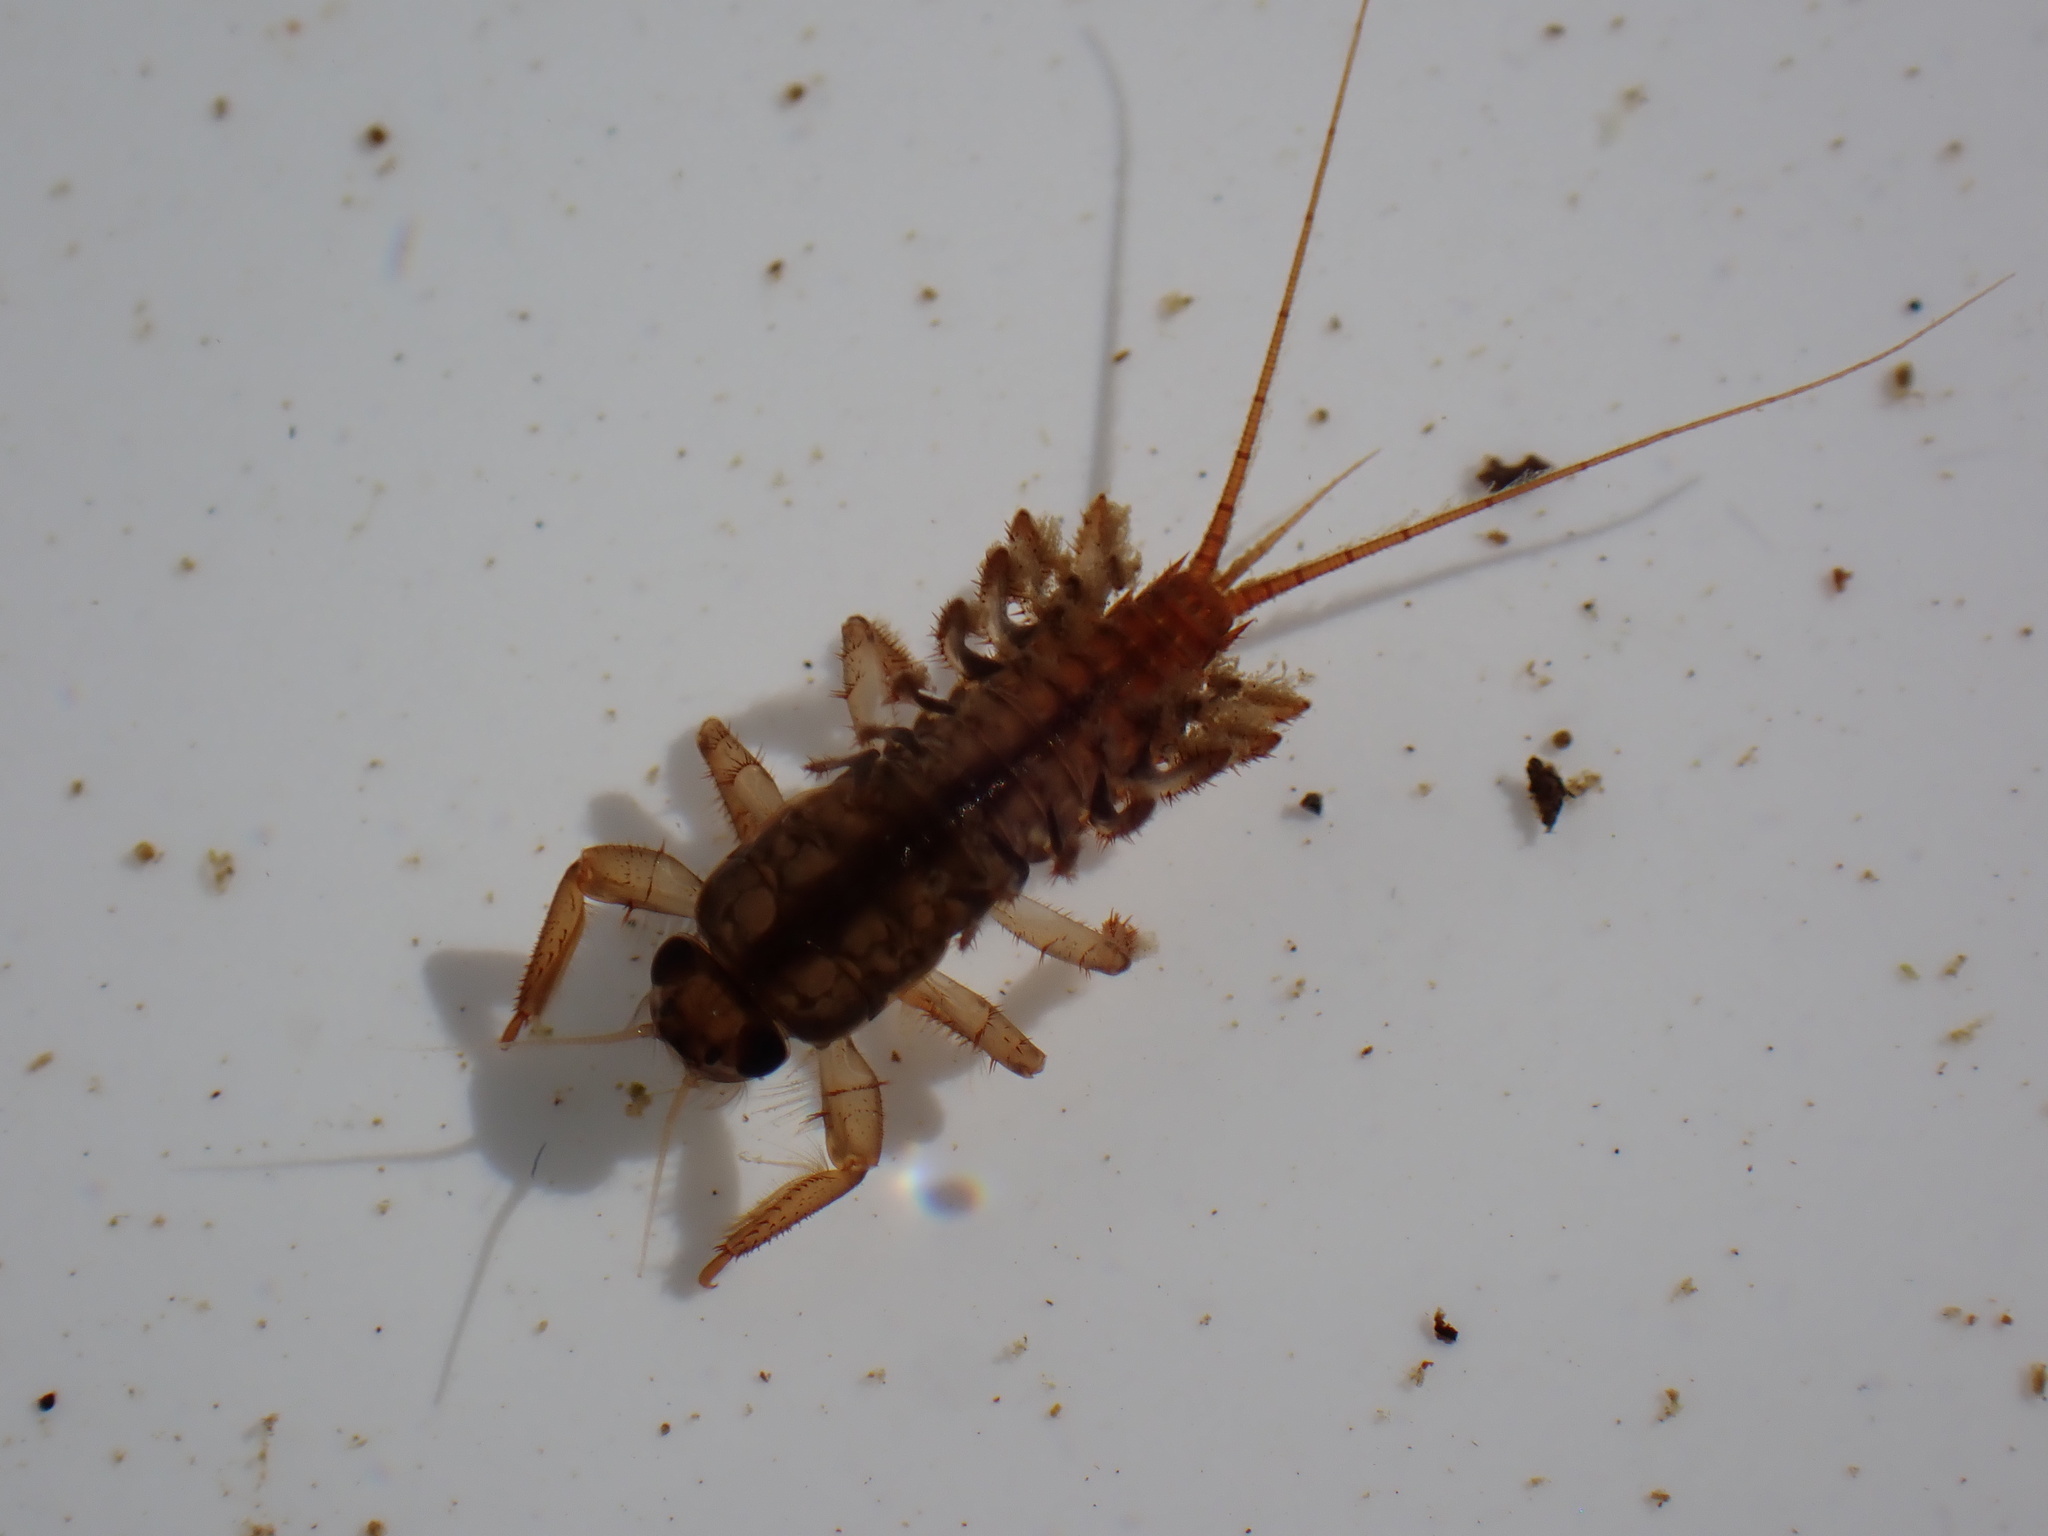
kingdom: Animalia
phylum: Arthropoda
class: Insecta
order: Ephemeroptera
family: Coloburiscidae
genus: Coloburiscus
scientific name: Coloburiscus humeralis
